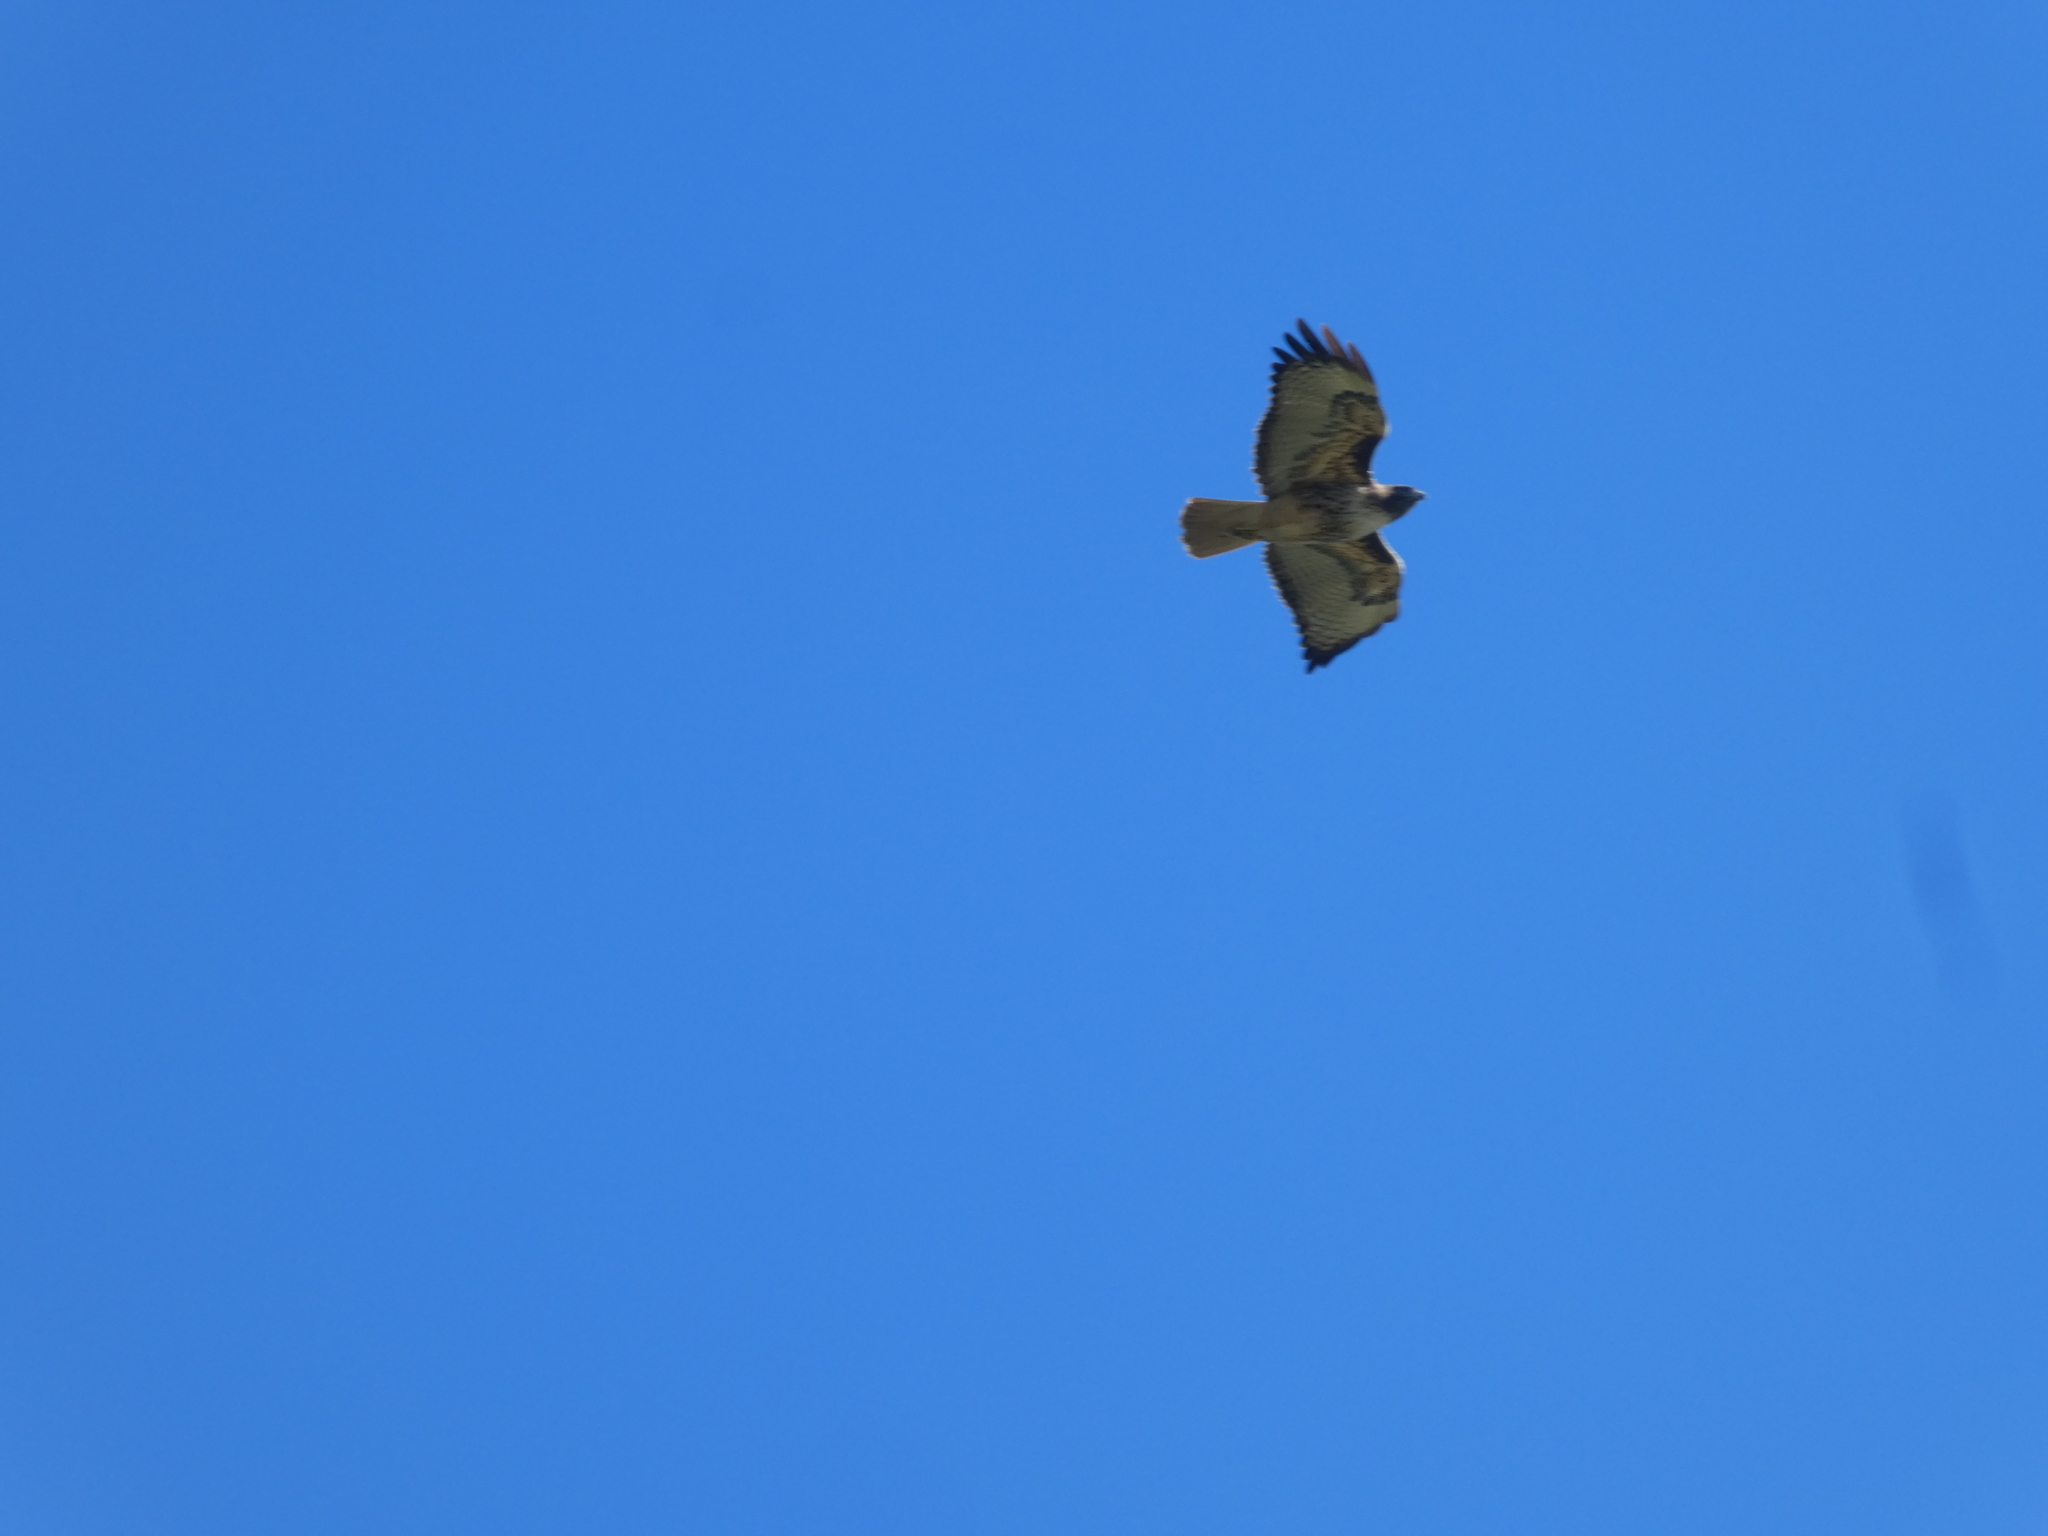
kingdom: Animalia
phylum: Chordata
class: Aves
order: Accipitriformes
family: Accipitridae
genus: Buteo
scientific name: Buteo jamaicensis
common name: Red-tailed hawk
